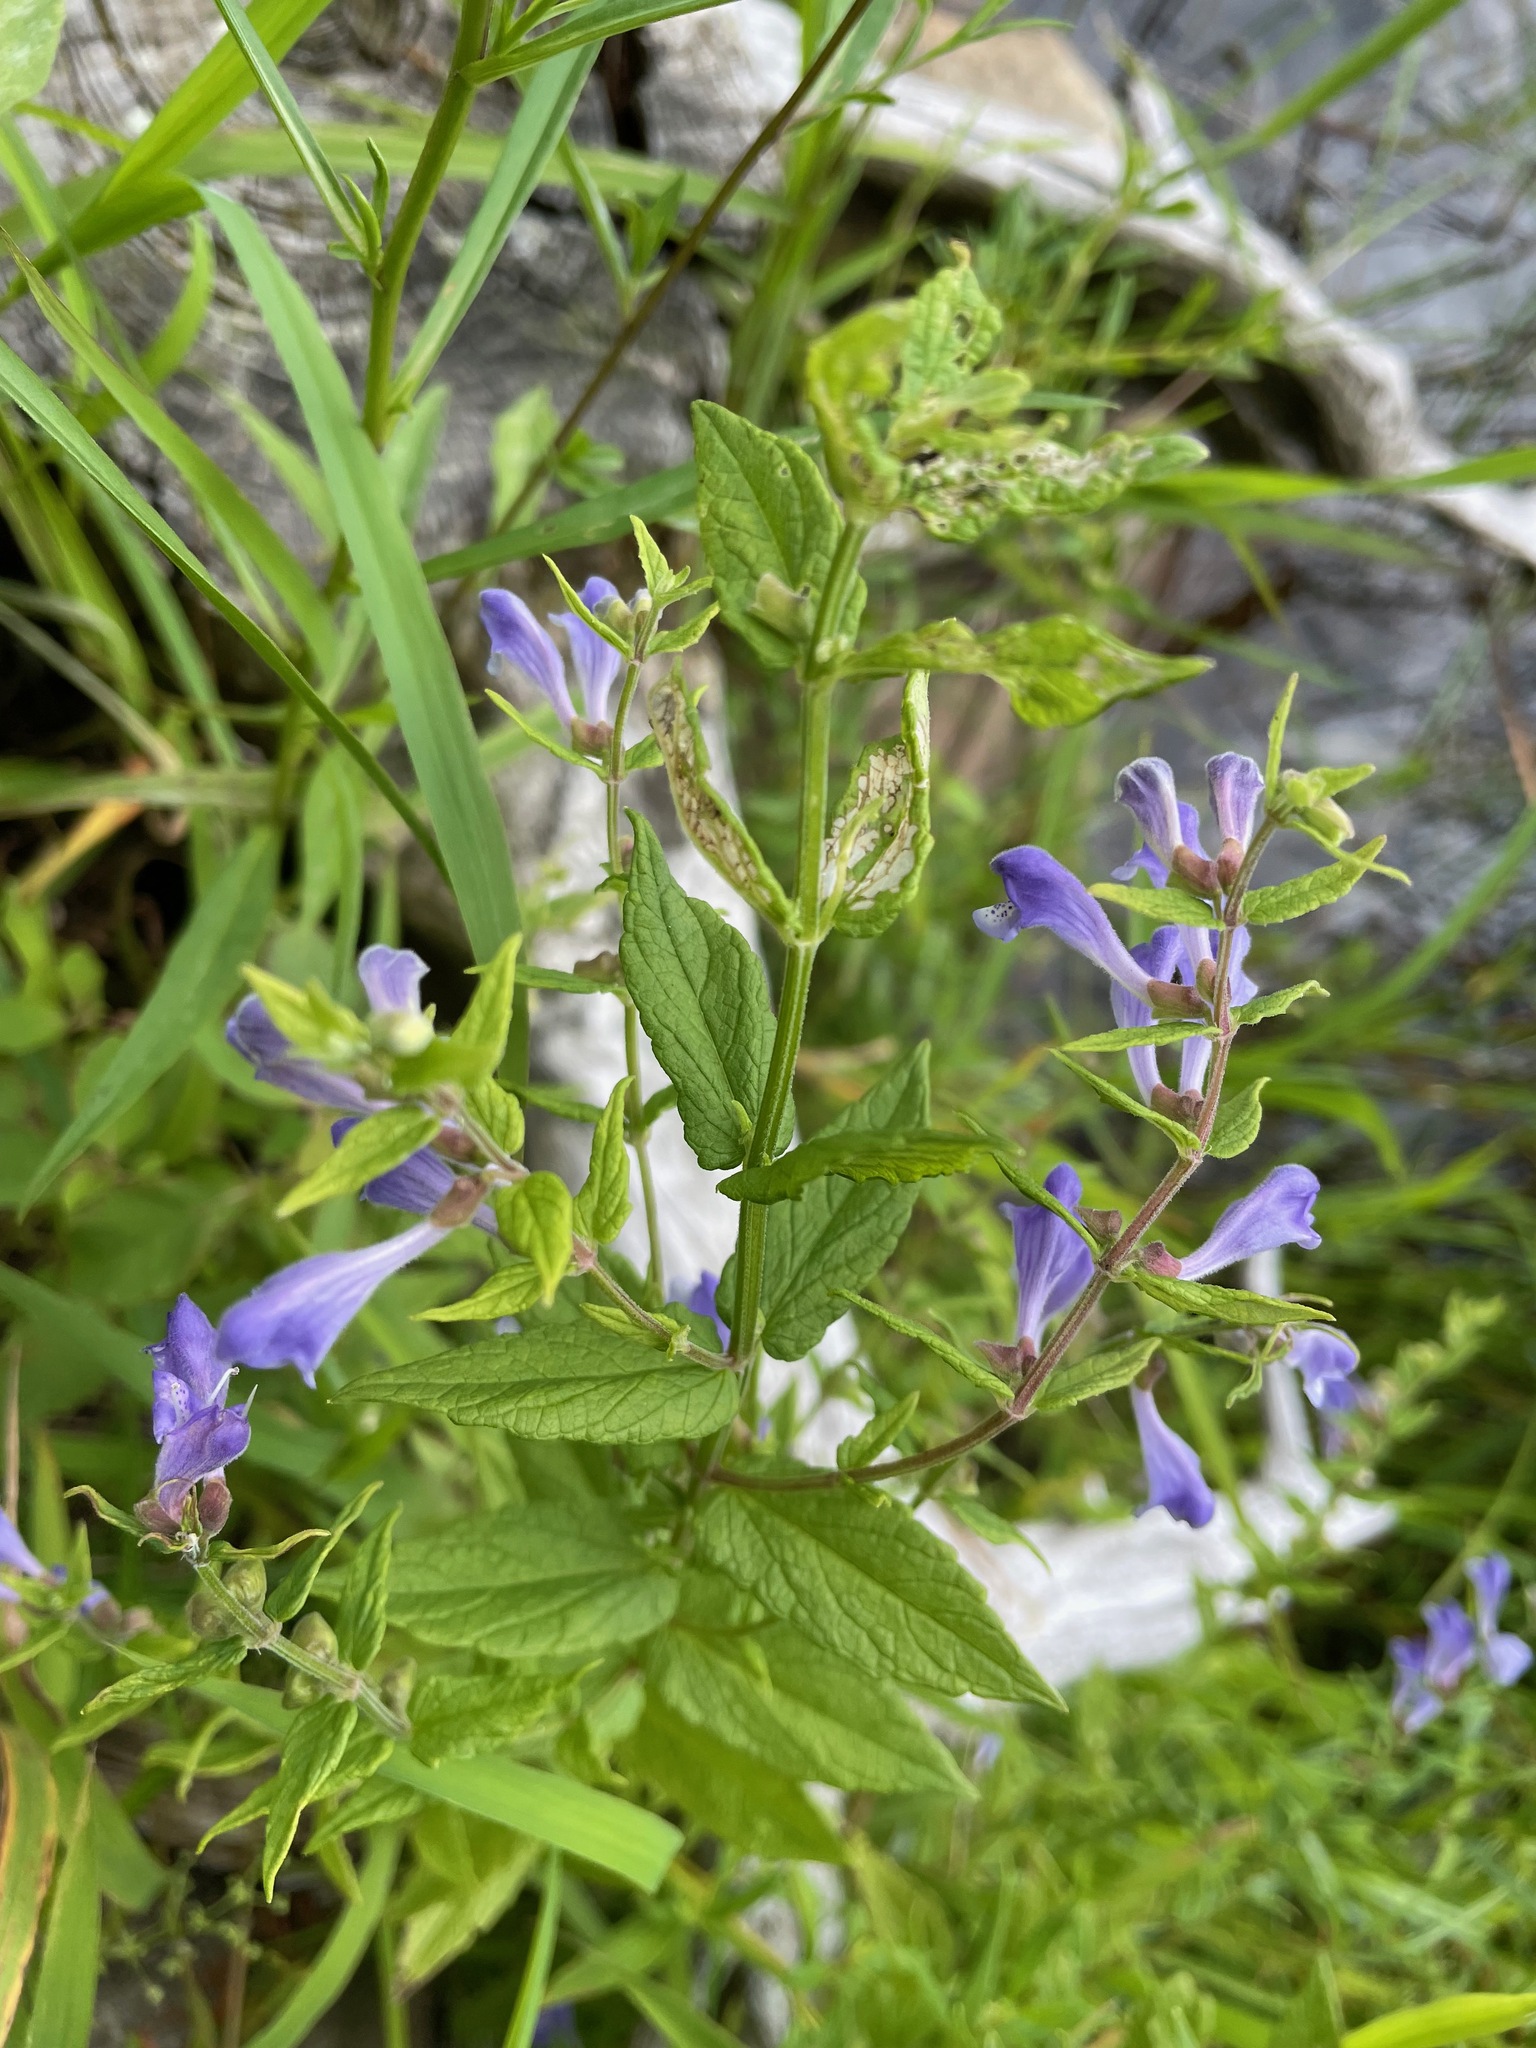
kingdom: Plantae
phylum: Tracheophyta
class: Magnoliopsida
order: Lamiales
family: Lamiaceae
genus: Scutellaria
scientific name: Scutellaria galericulata
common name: Skullcap
